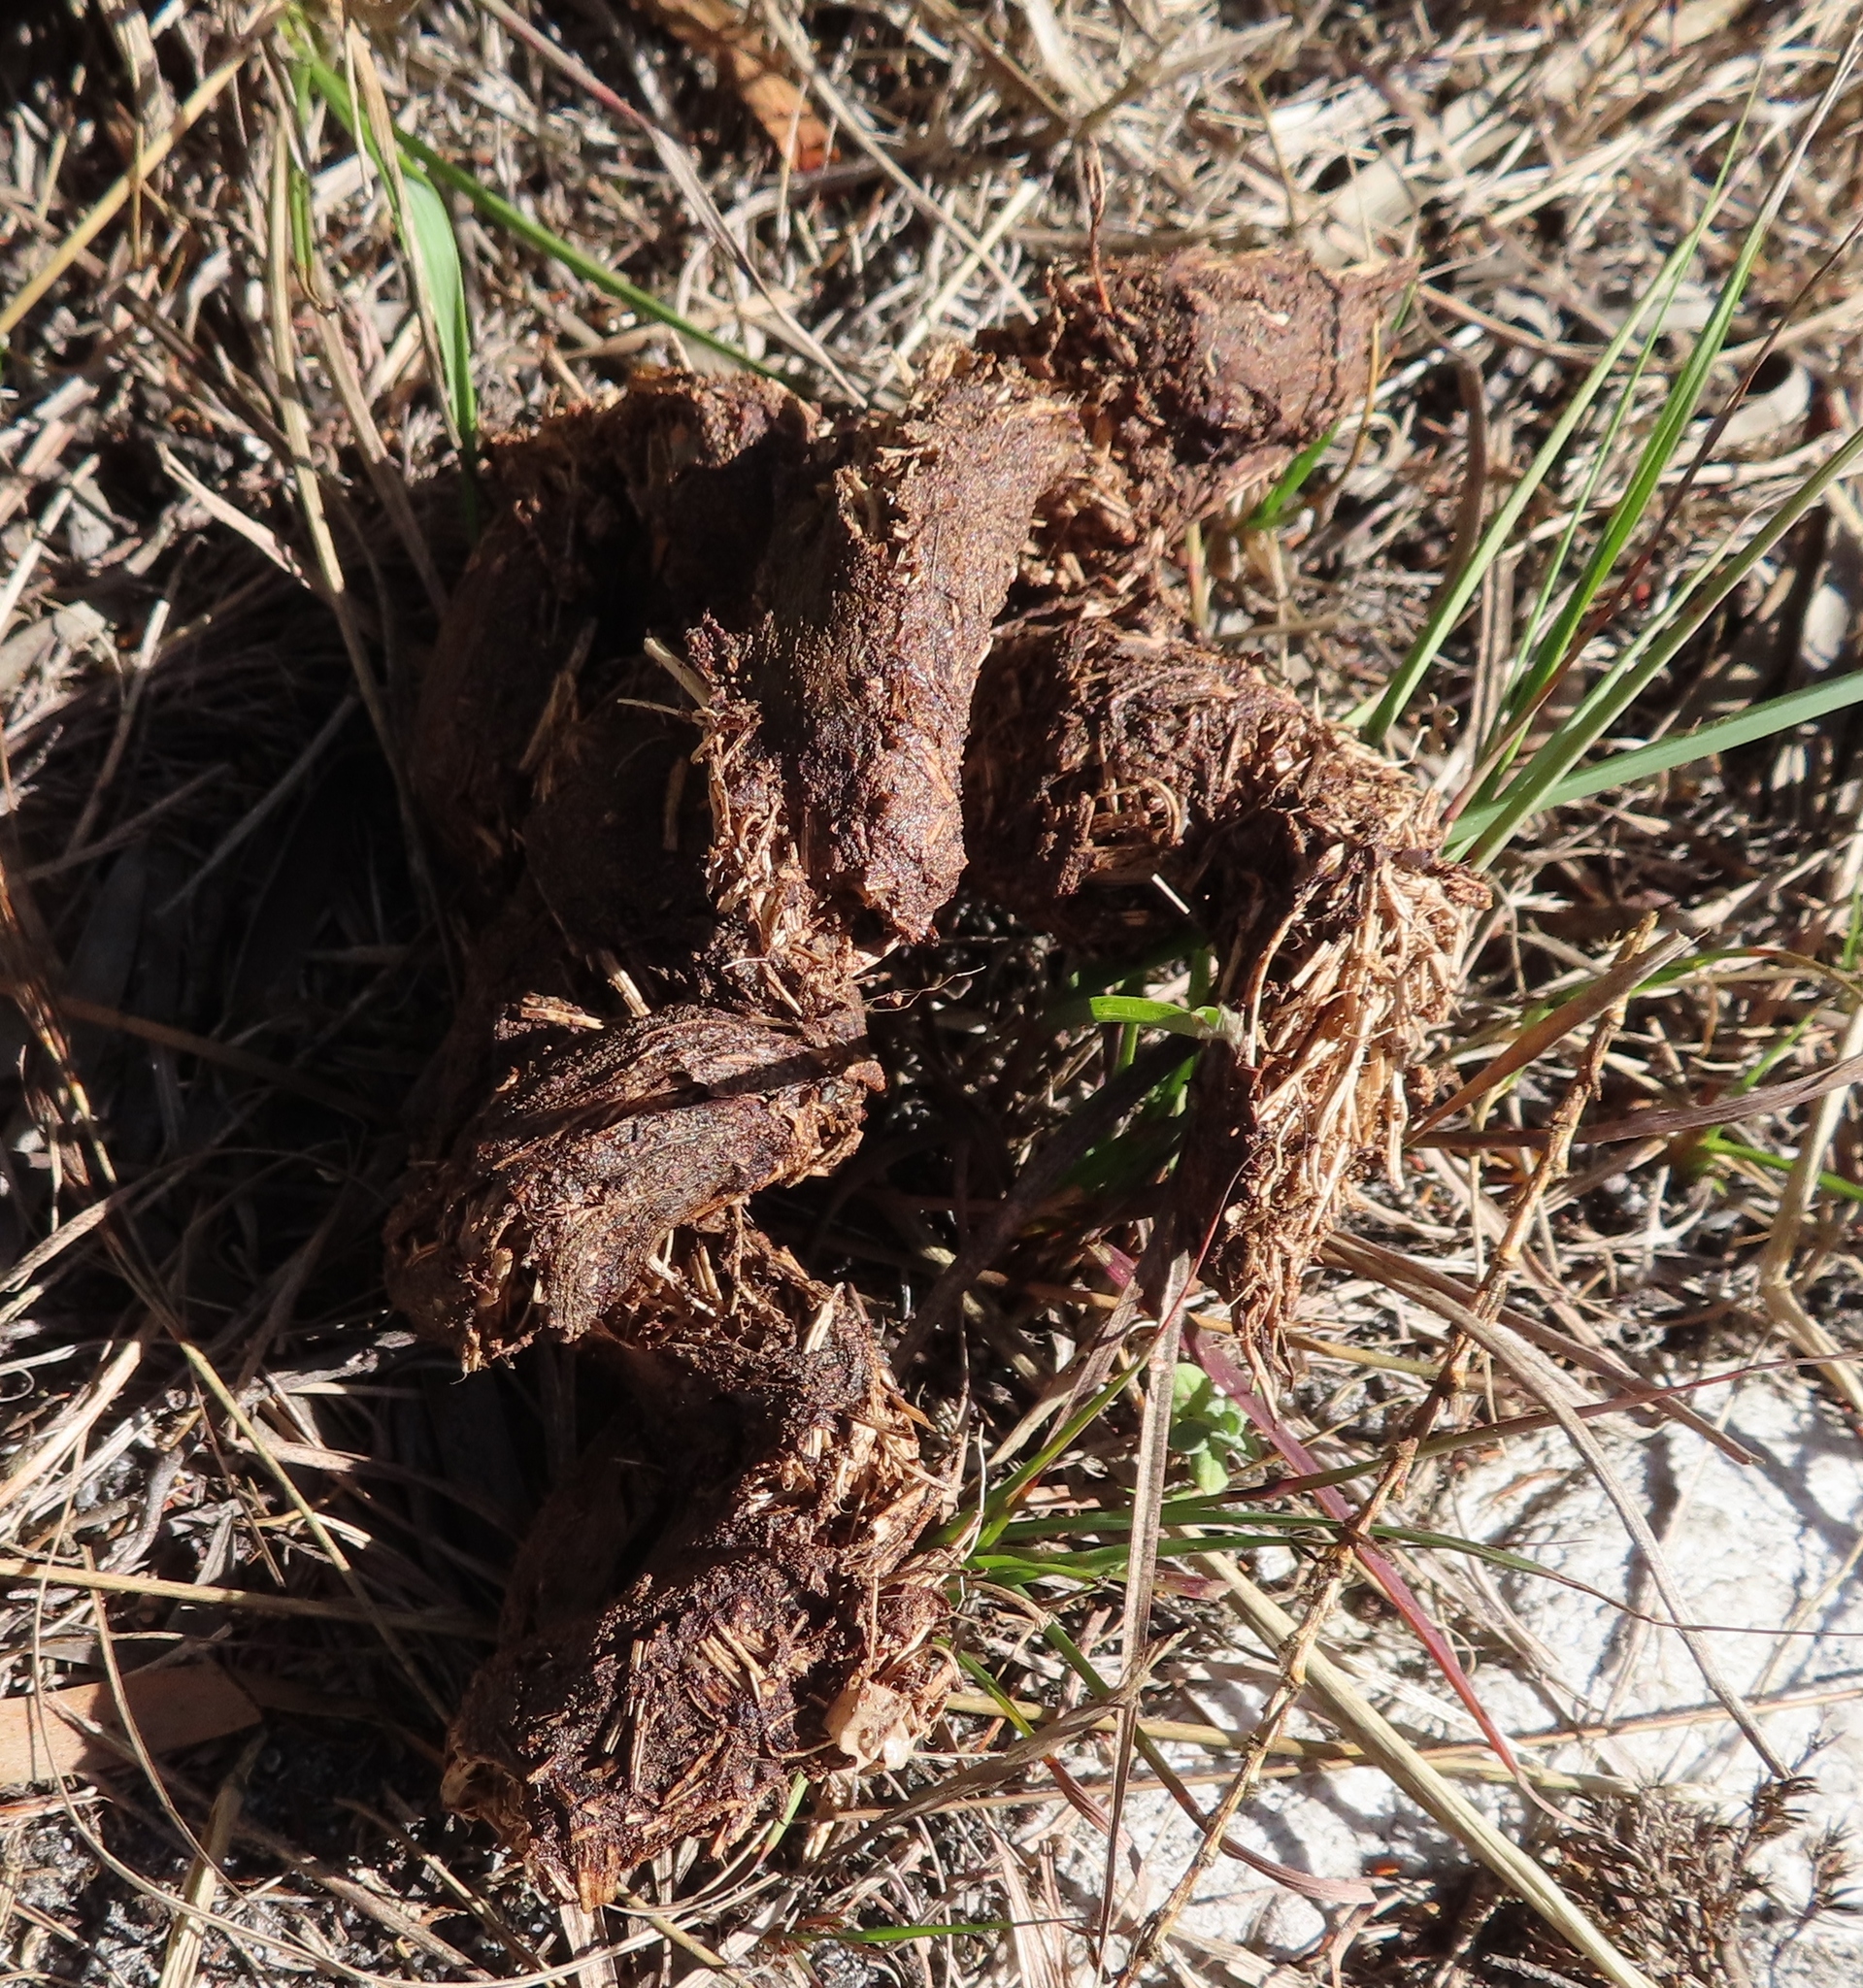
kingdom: Animalia
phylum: Chordata
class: Mammalia
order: Primates
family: Cercopithecidae
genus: Papio
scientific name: Papio ursinus
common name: Chacma baboon
